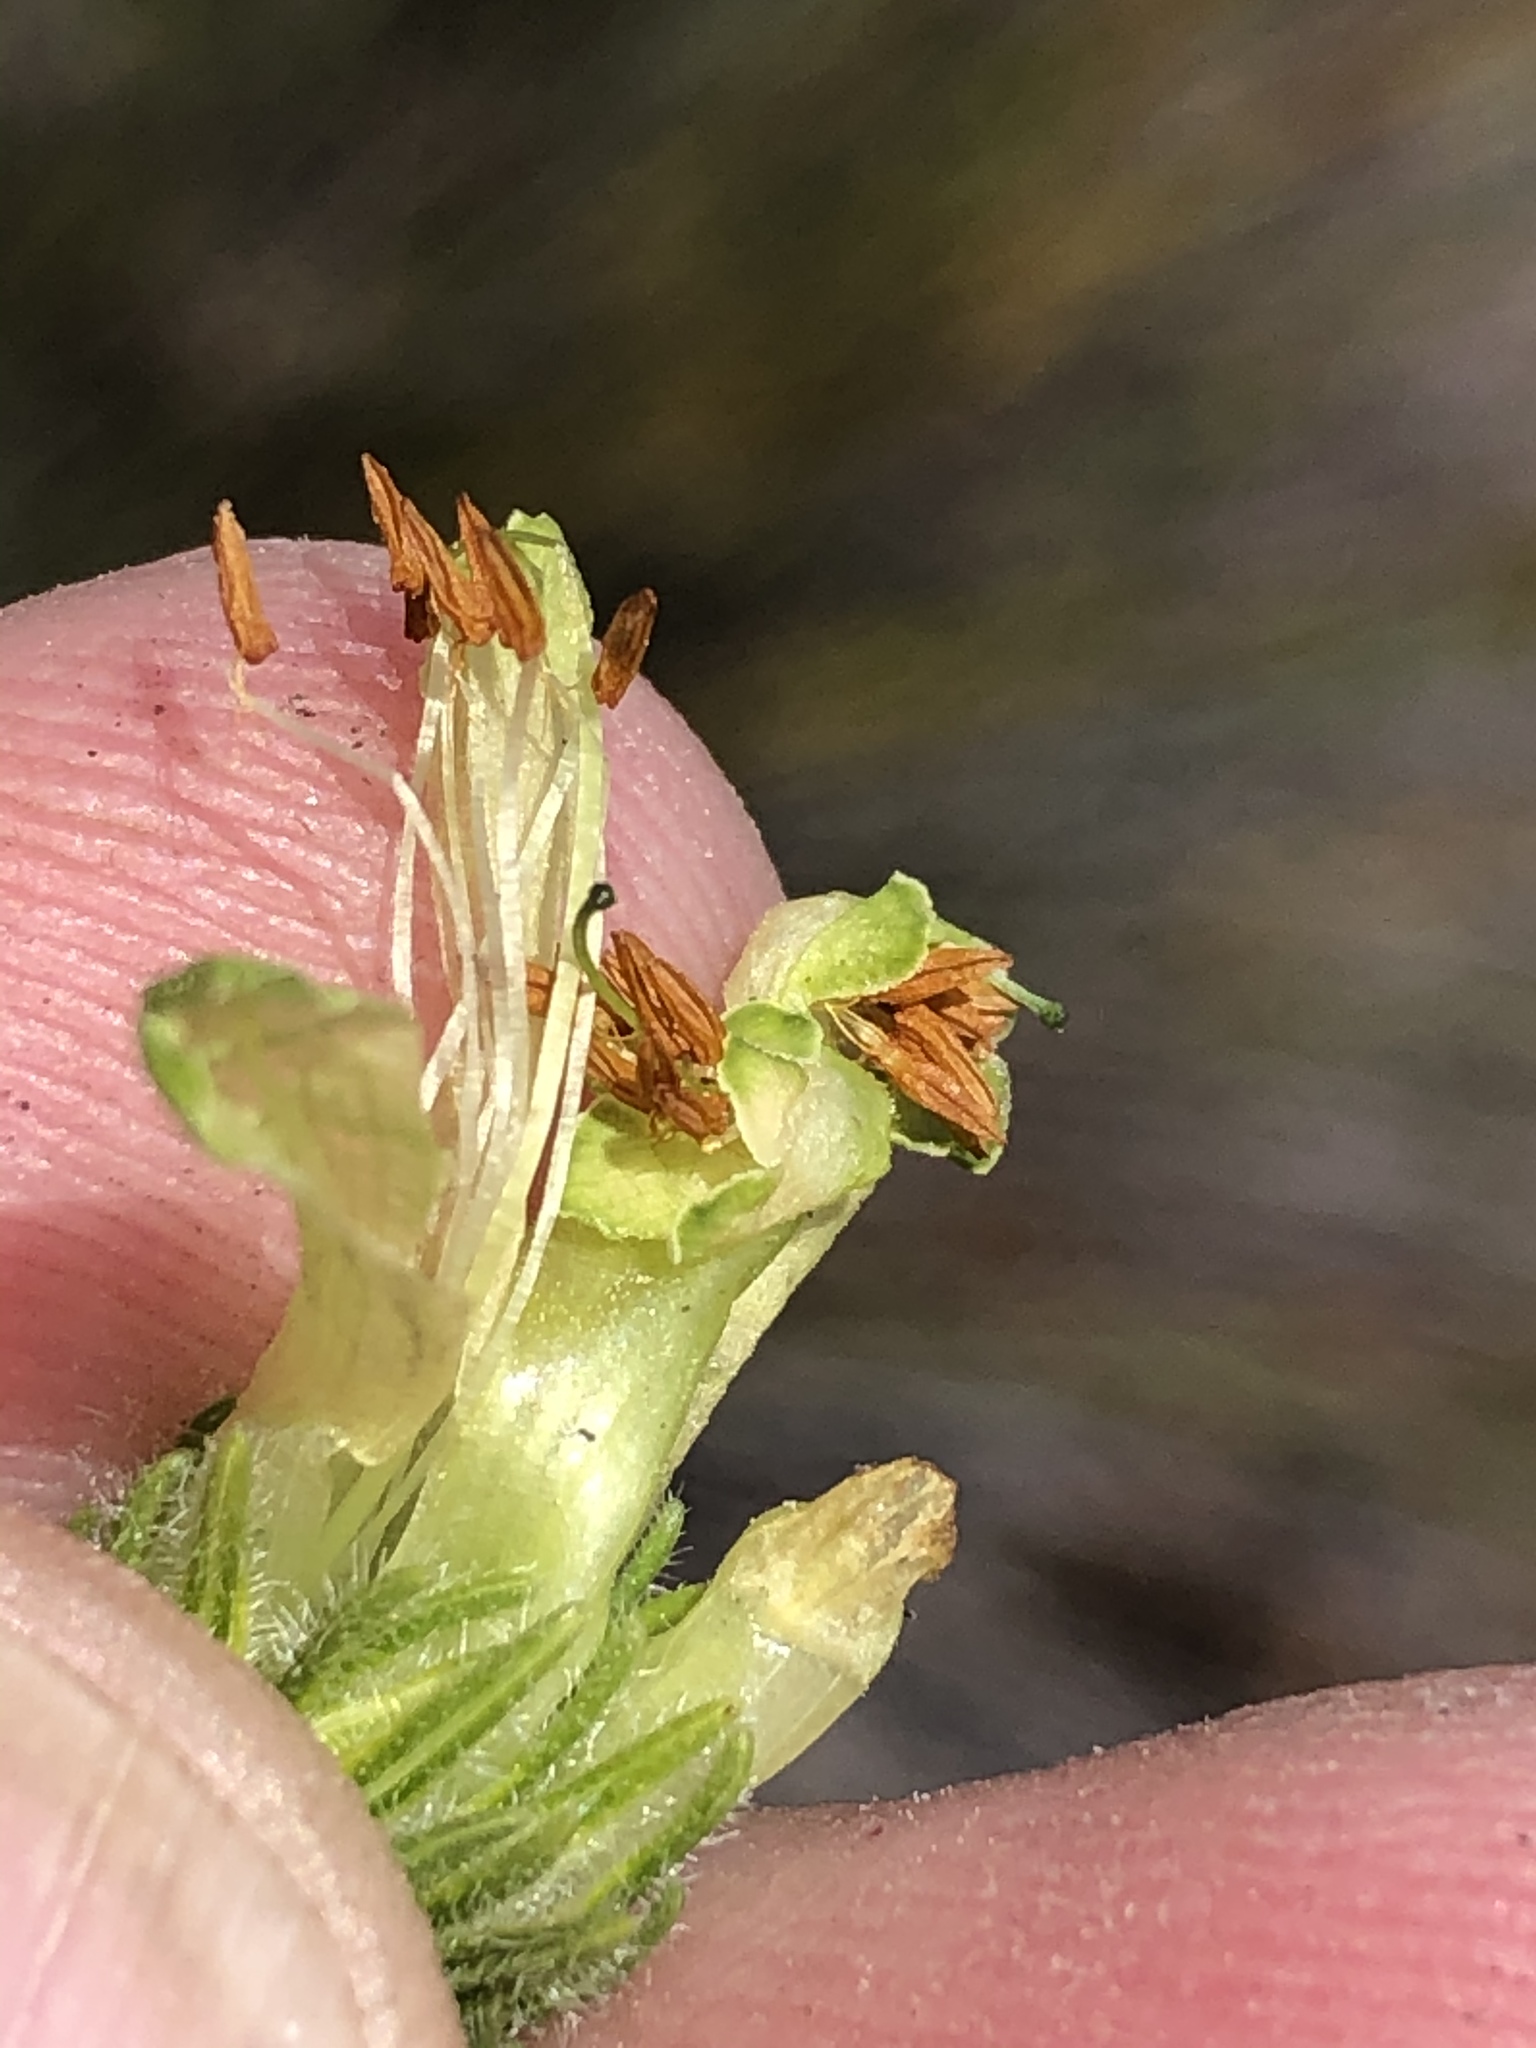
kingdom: Plantae
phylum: Tracheophyta
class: Magnoliopsida
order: Ericales
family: Ericaceae
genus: Erica
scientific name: Erica unicolor
